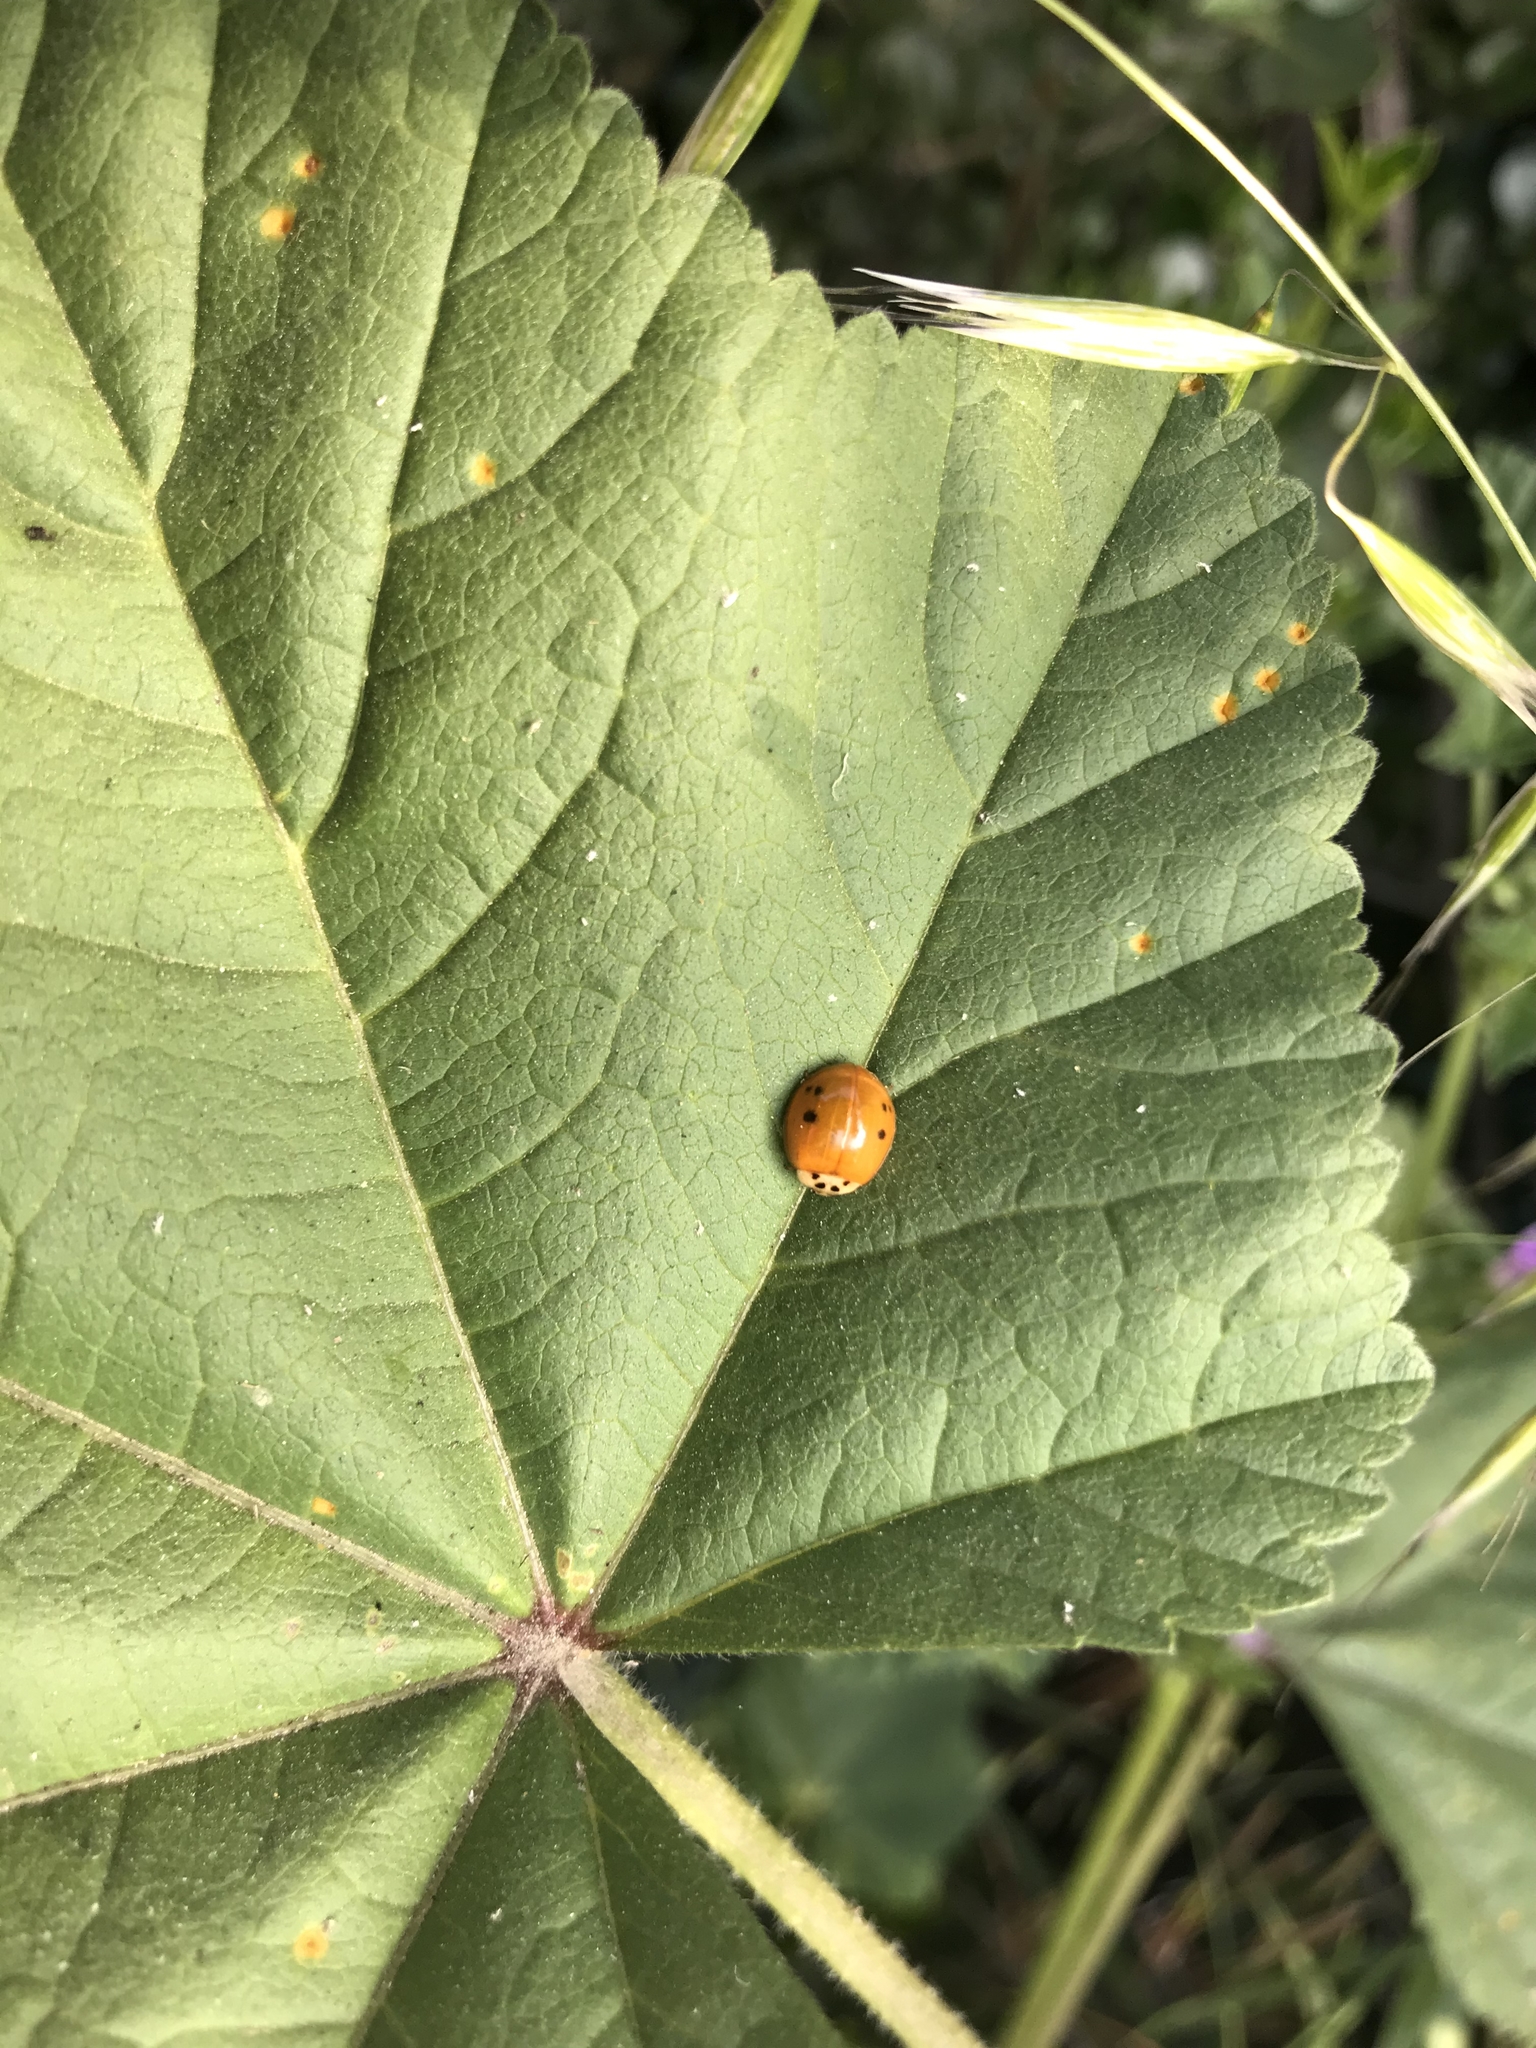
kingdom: Animalia
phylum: Arthropoda
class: Insecta
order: Coleoptera
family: Coccinellidae
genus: Harmonia
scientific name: Harmonia axyridis
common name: Harlequin ladybird
